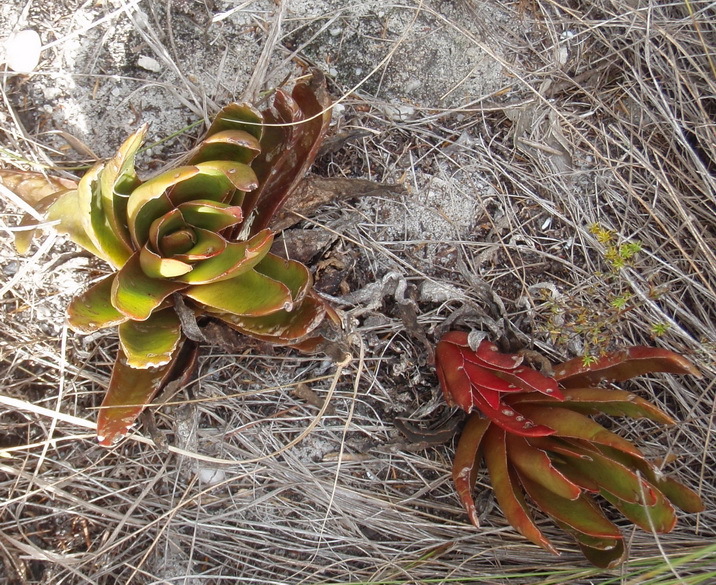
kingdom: Plantae
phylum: Tracheophyta
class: Magnoliopsida
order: Saxifragales
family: Crassulaceae
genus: Crassula
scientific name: Crassula nudicaulis
